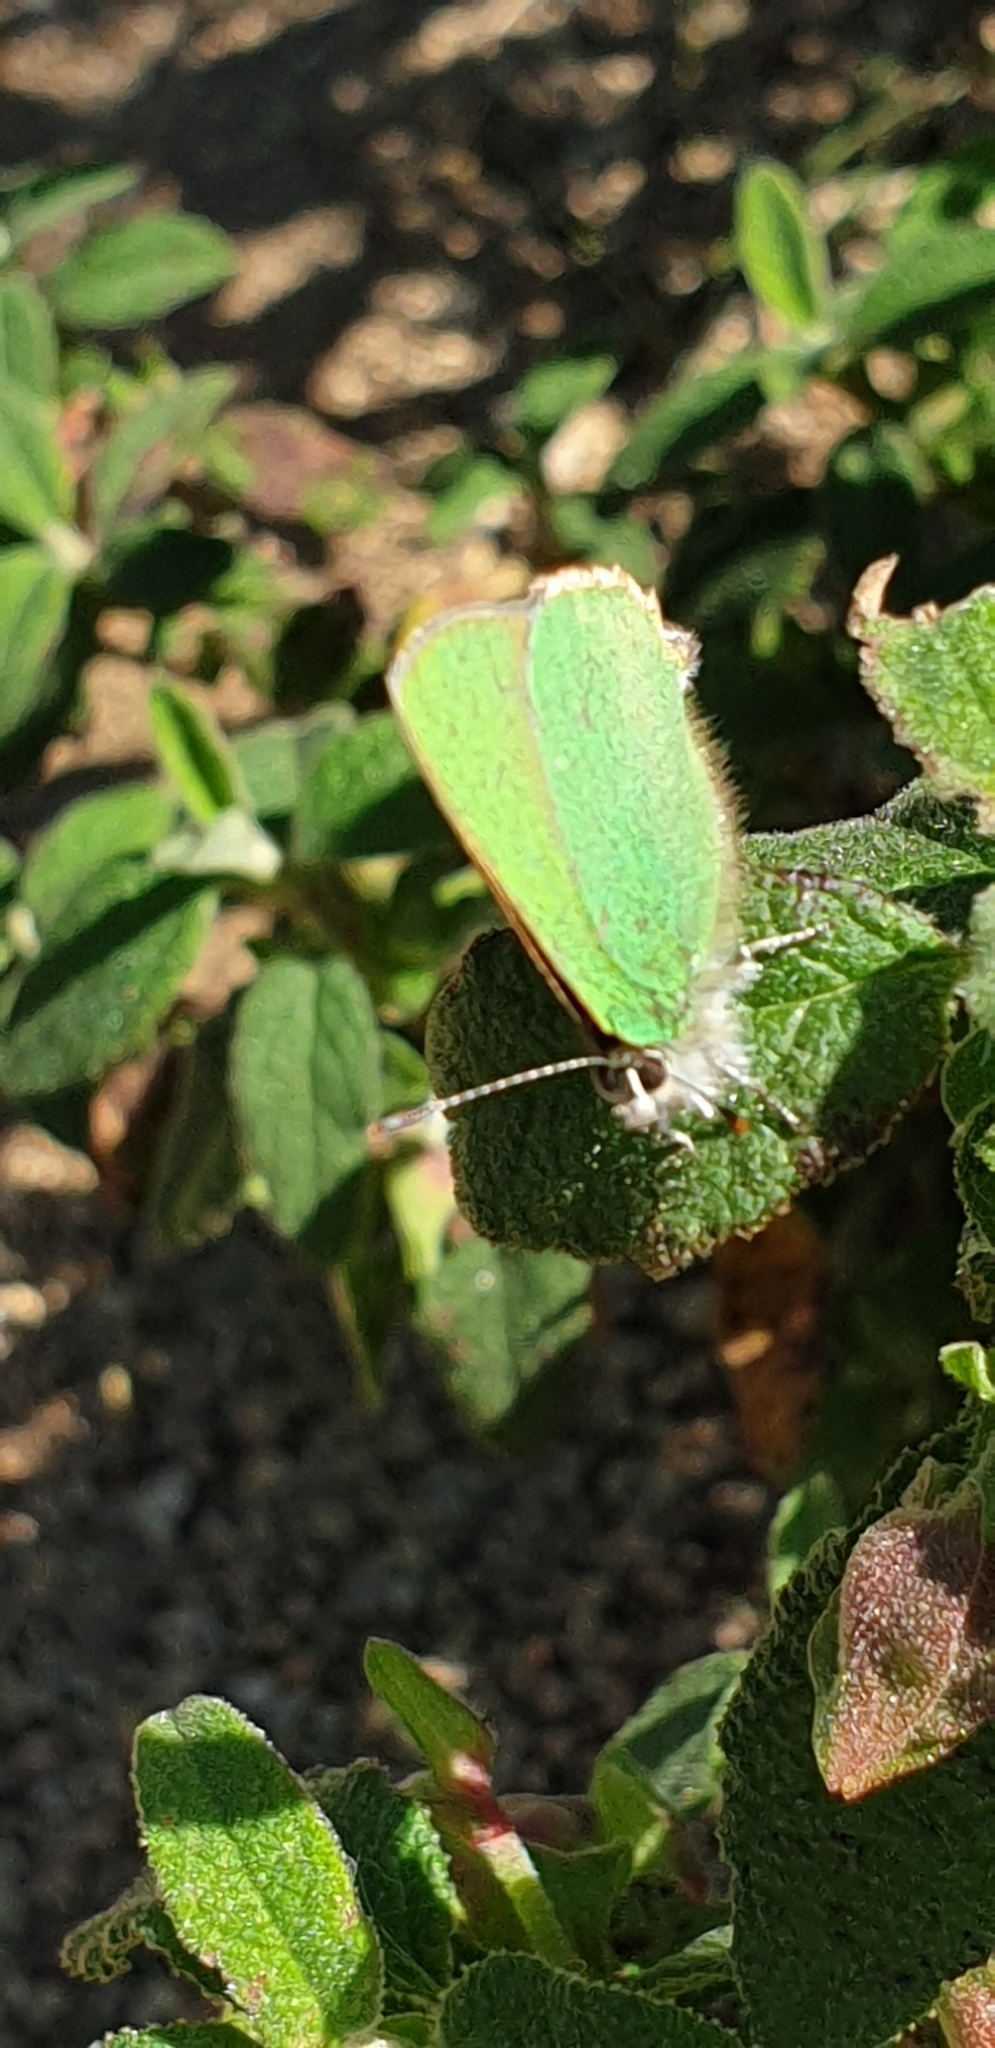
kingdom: Animalia
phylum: Arthropoda
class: Insecta
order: Lepidoptera
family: Lycaenidae
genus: Callophrys
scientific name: Callophrys rubi
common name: Green hairstreak
